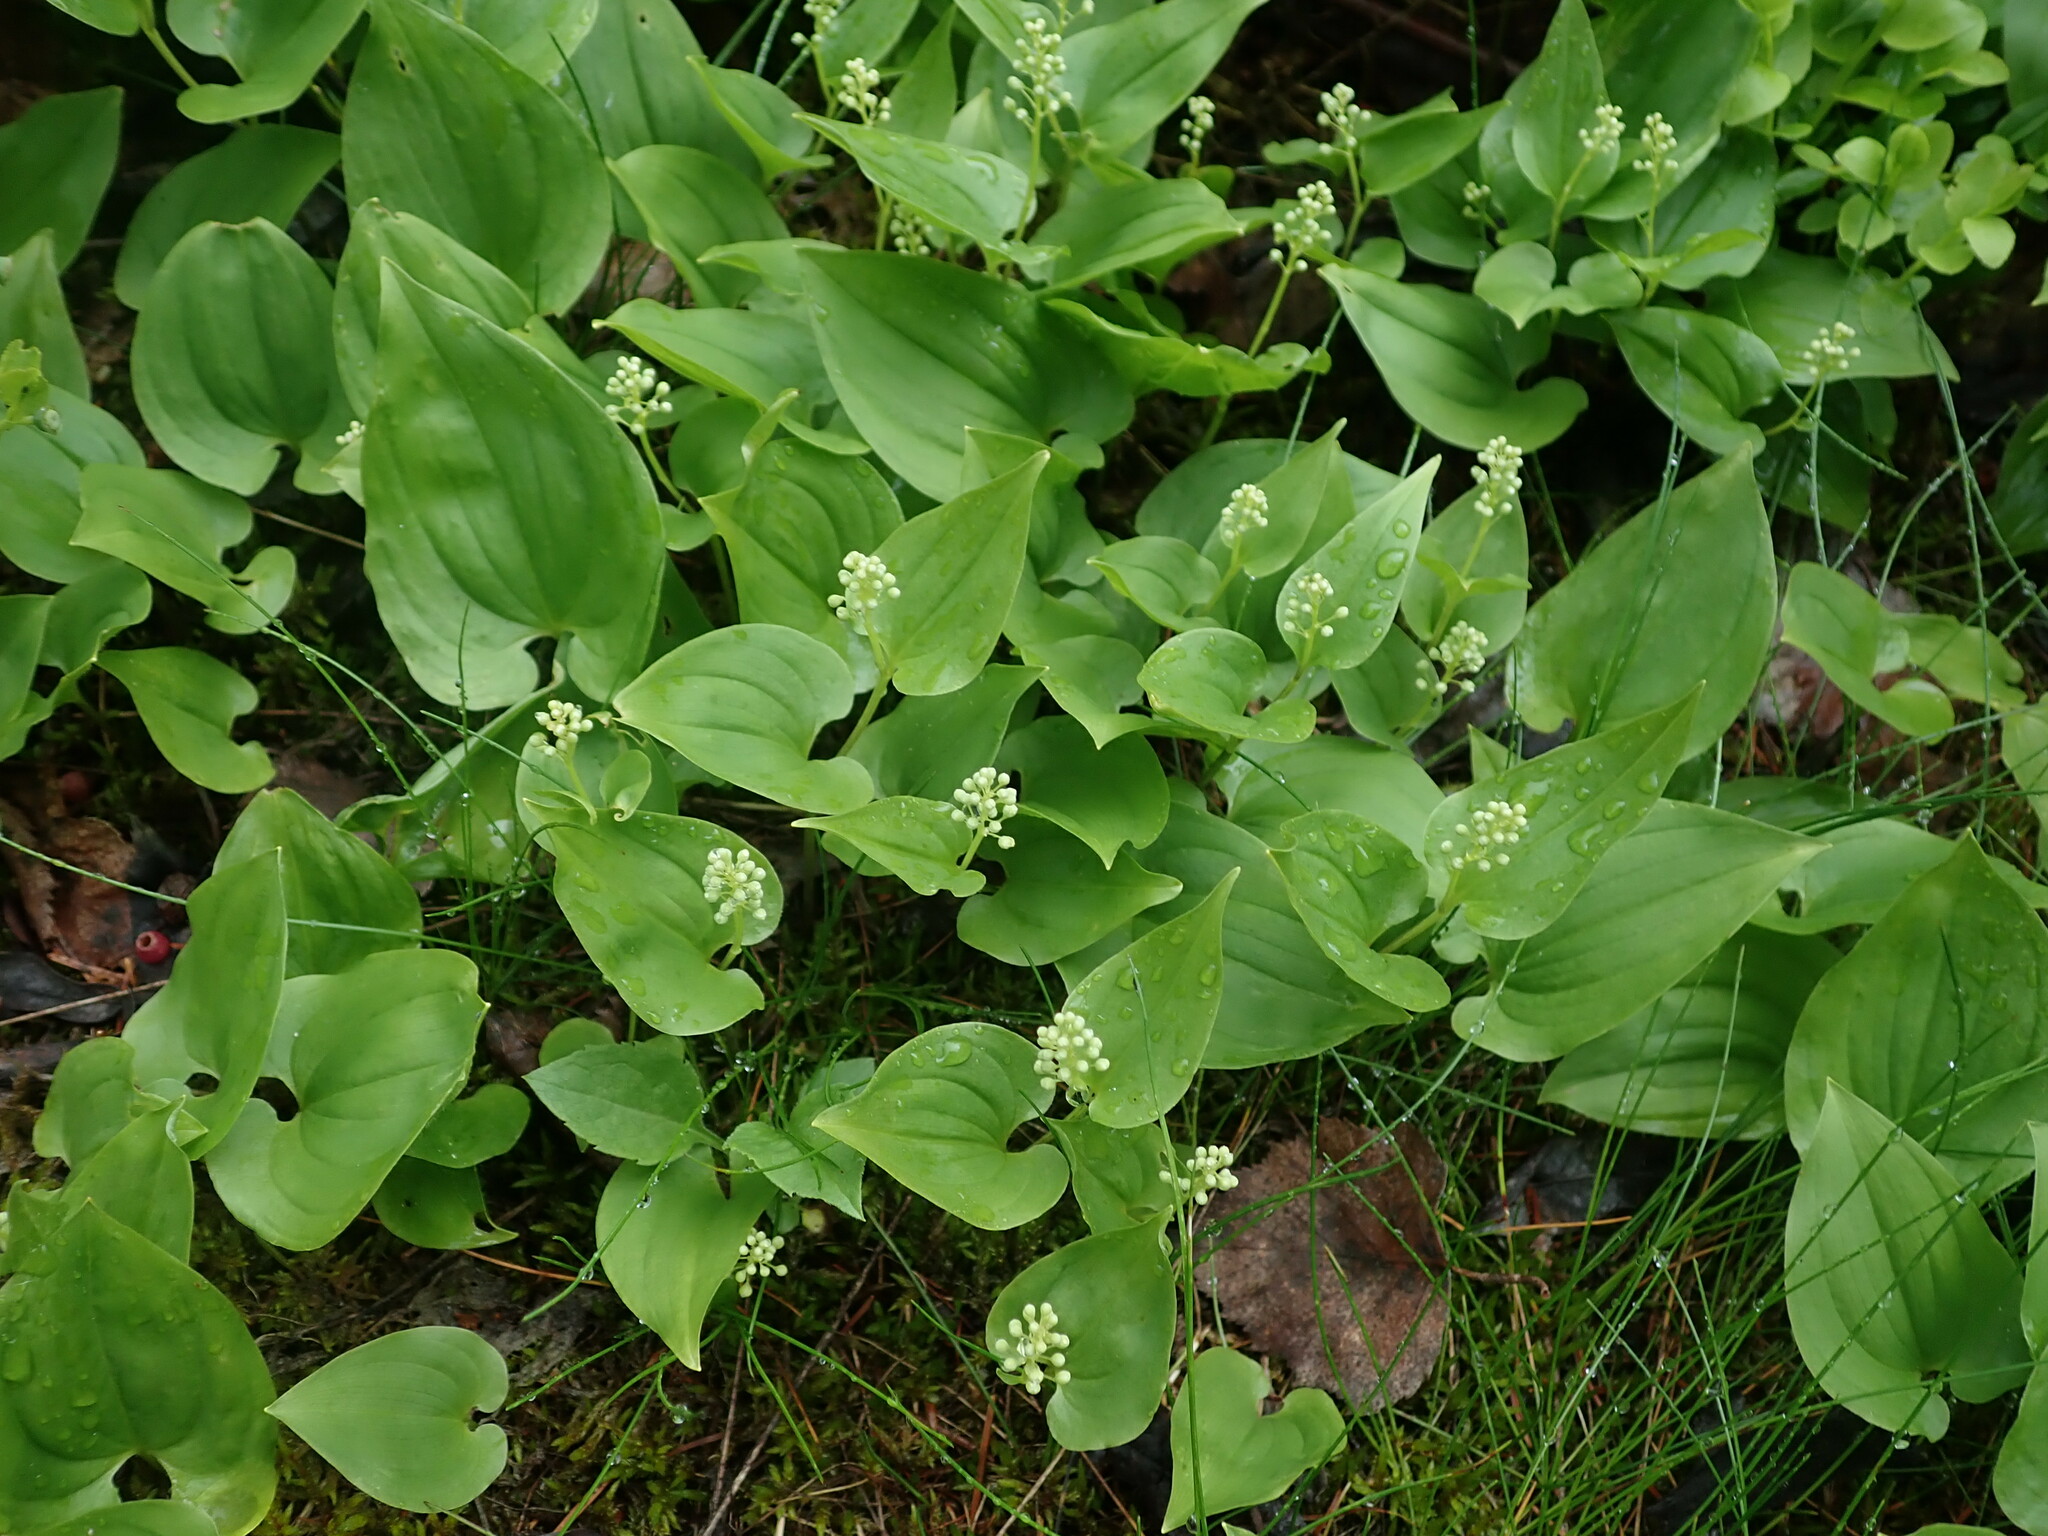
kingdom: Plantae
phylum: Tracheophyta
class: Liliopsida
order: Asparagales
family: Asparagaceae
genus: Maianthemum
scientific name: Maianthemum bifolium
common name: May lily
